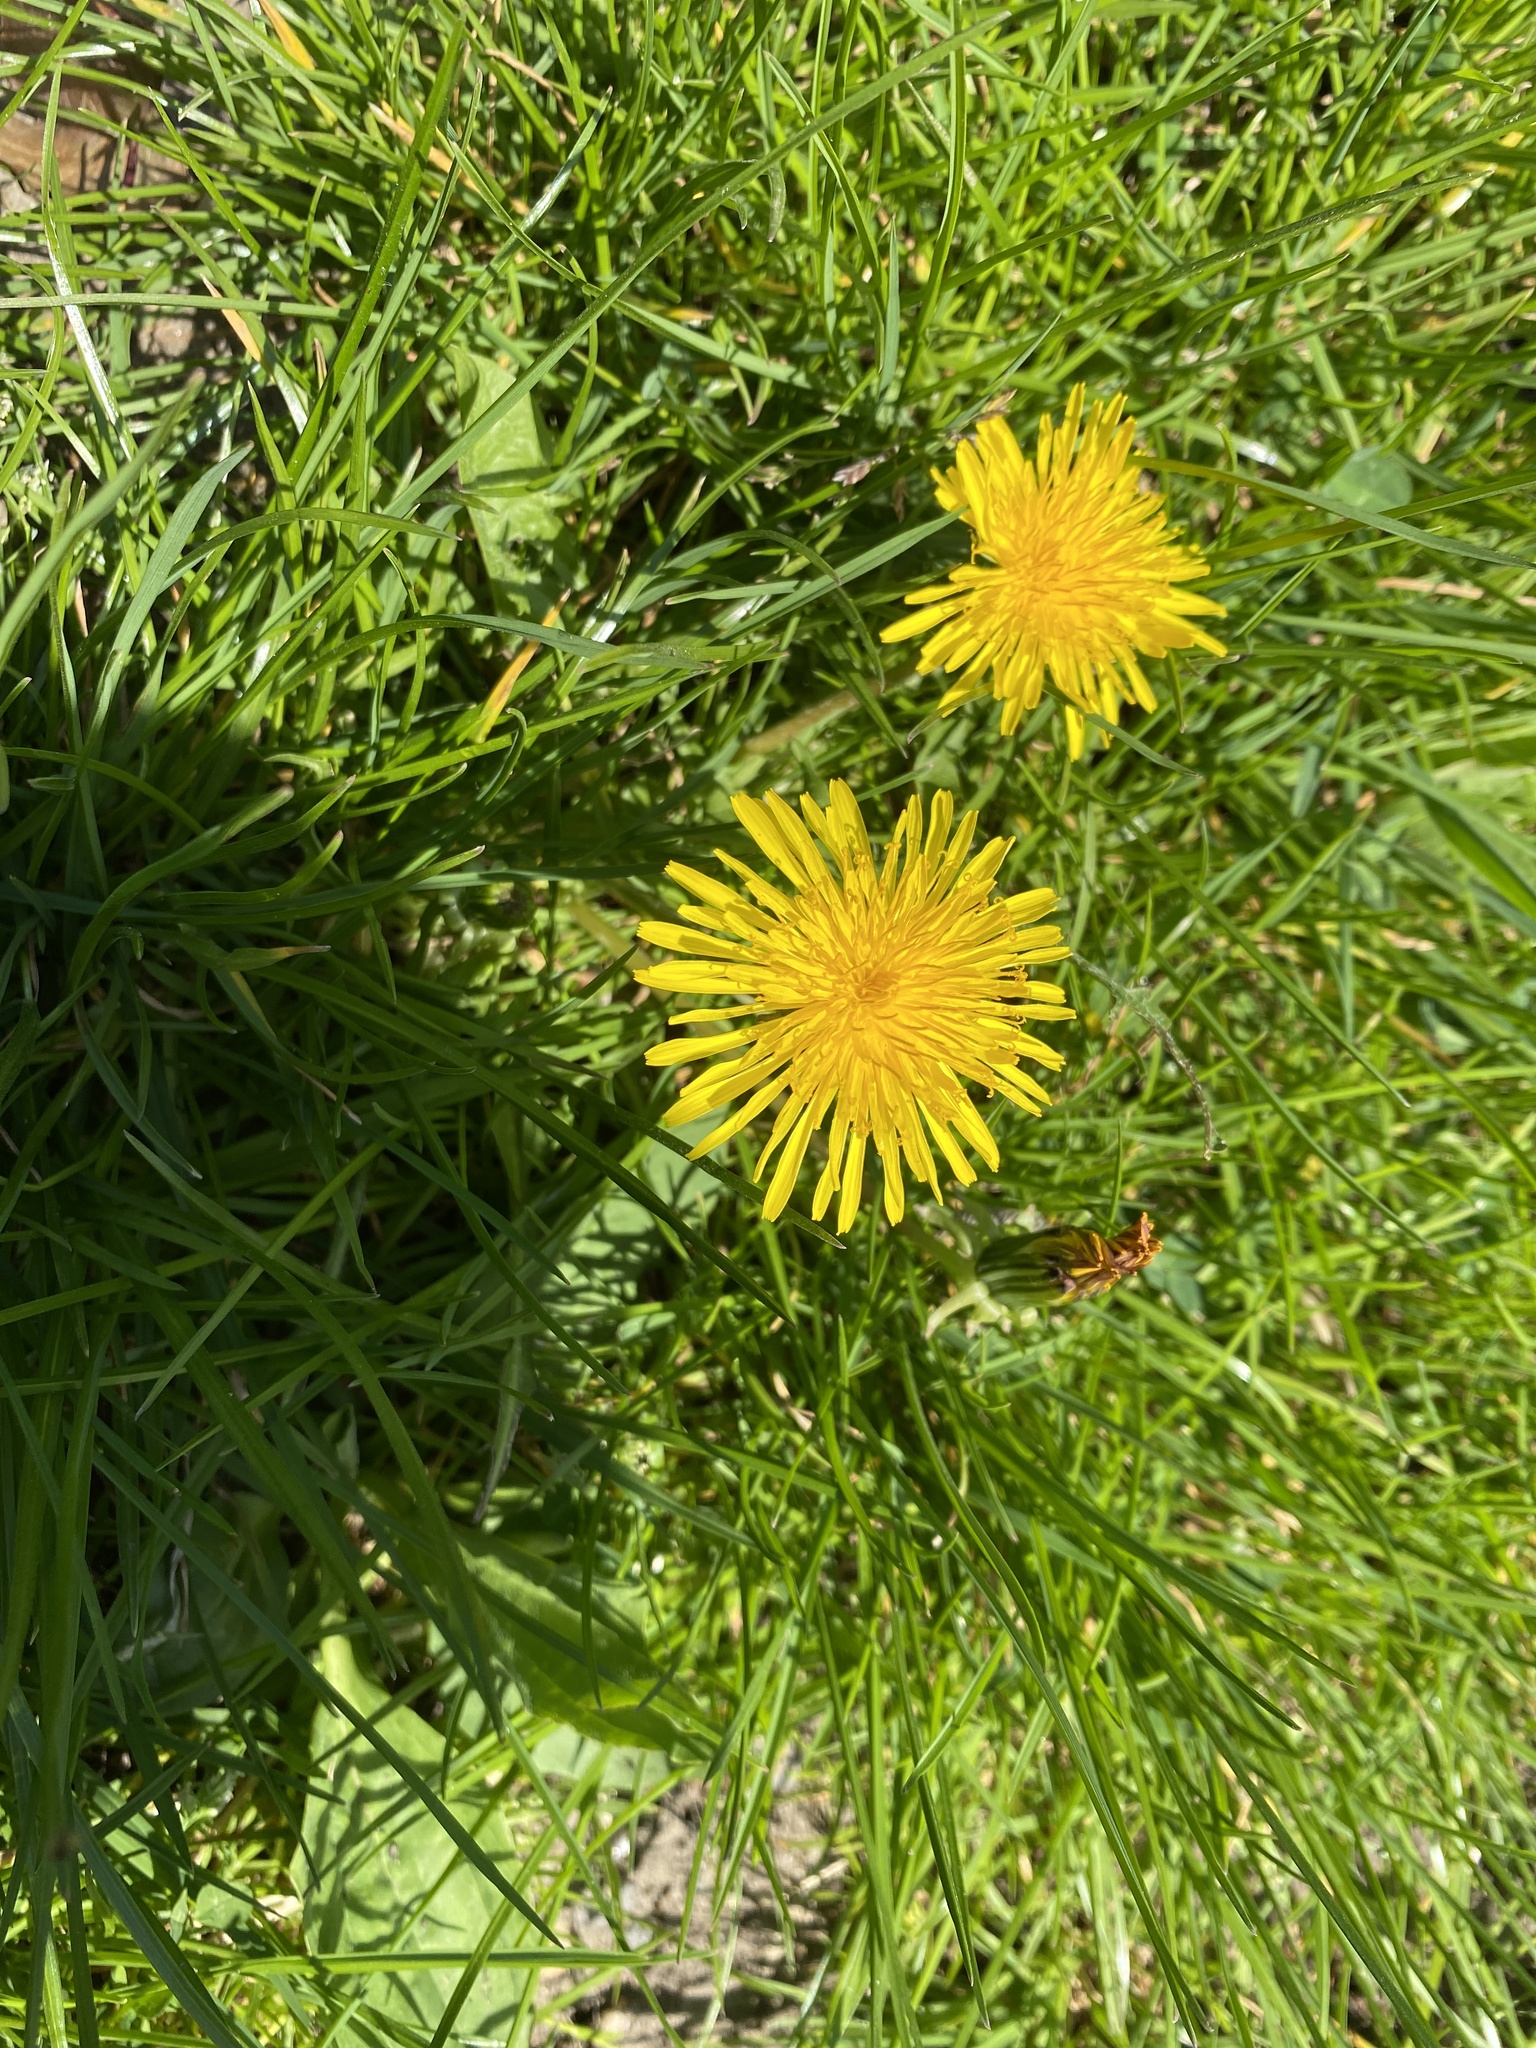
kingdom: Plantae
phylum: Tracheophyta
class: Magnoliopsida
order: Asterales
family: Asteraceae
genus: Taraxacum
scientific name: Taraxacum officinale
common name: Common dandelion
